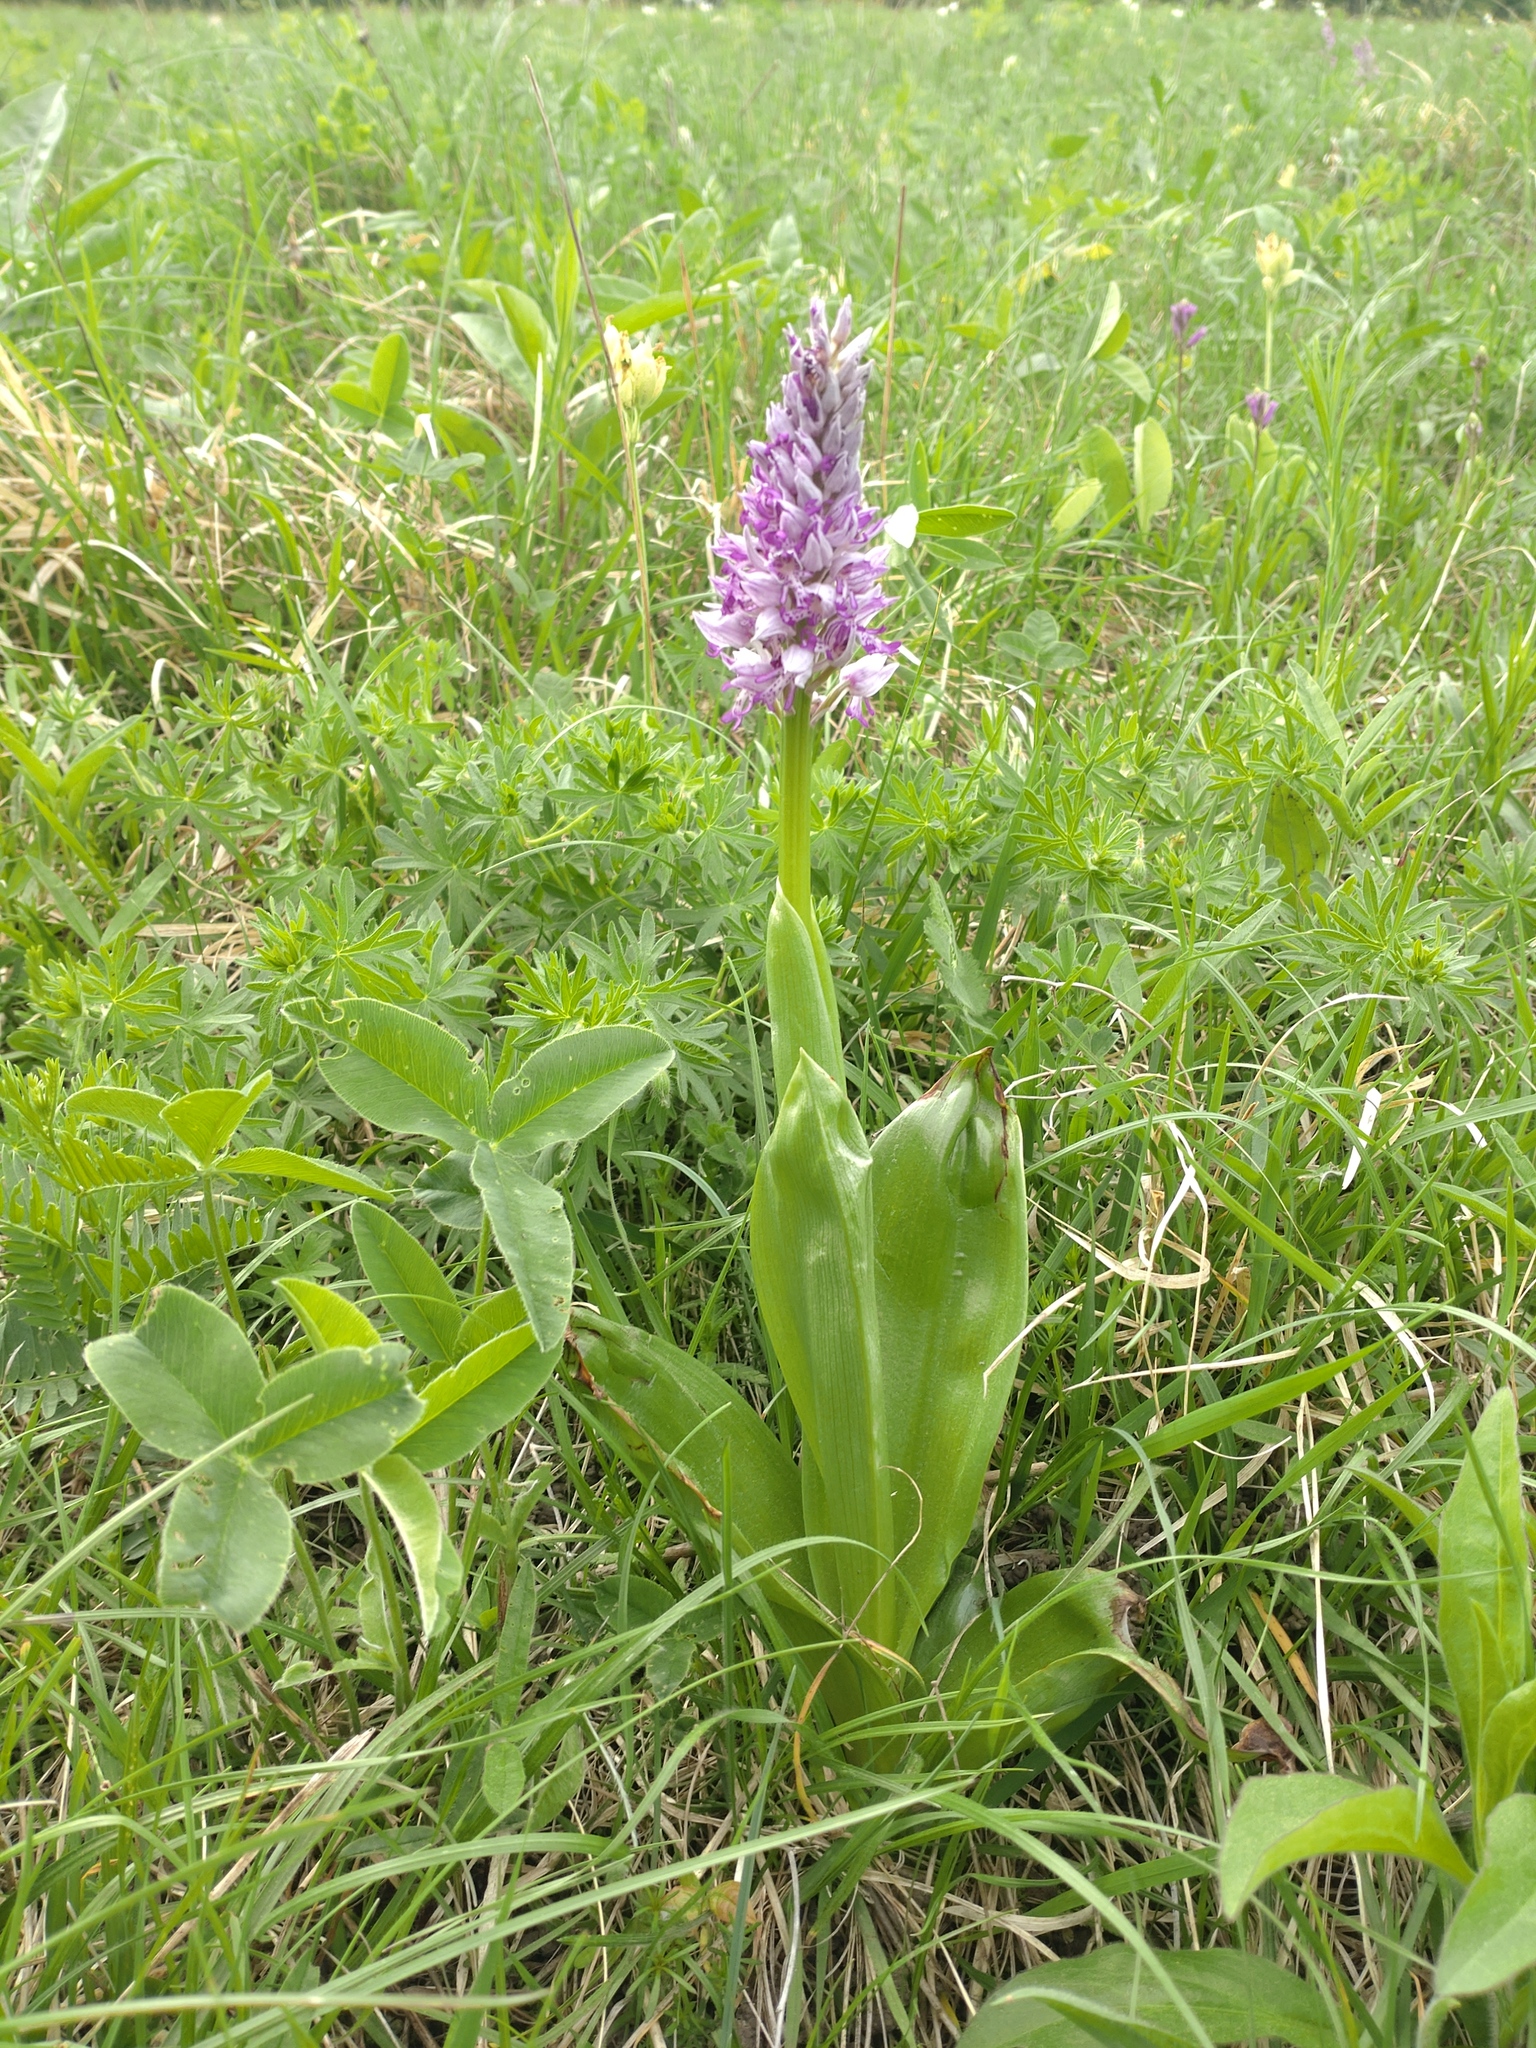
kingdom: Plantae
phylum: Tracheophyta
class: Liliopsida
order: Asparagales
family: Orchidaceae
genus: Orchis
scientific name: Orchis militaris
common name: Military orchid
